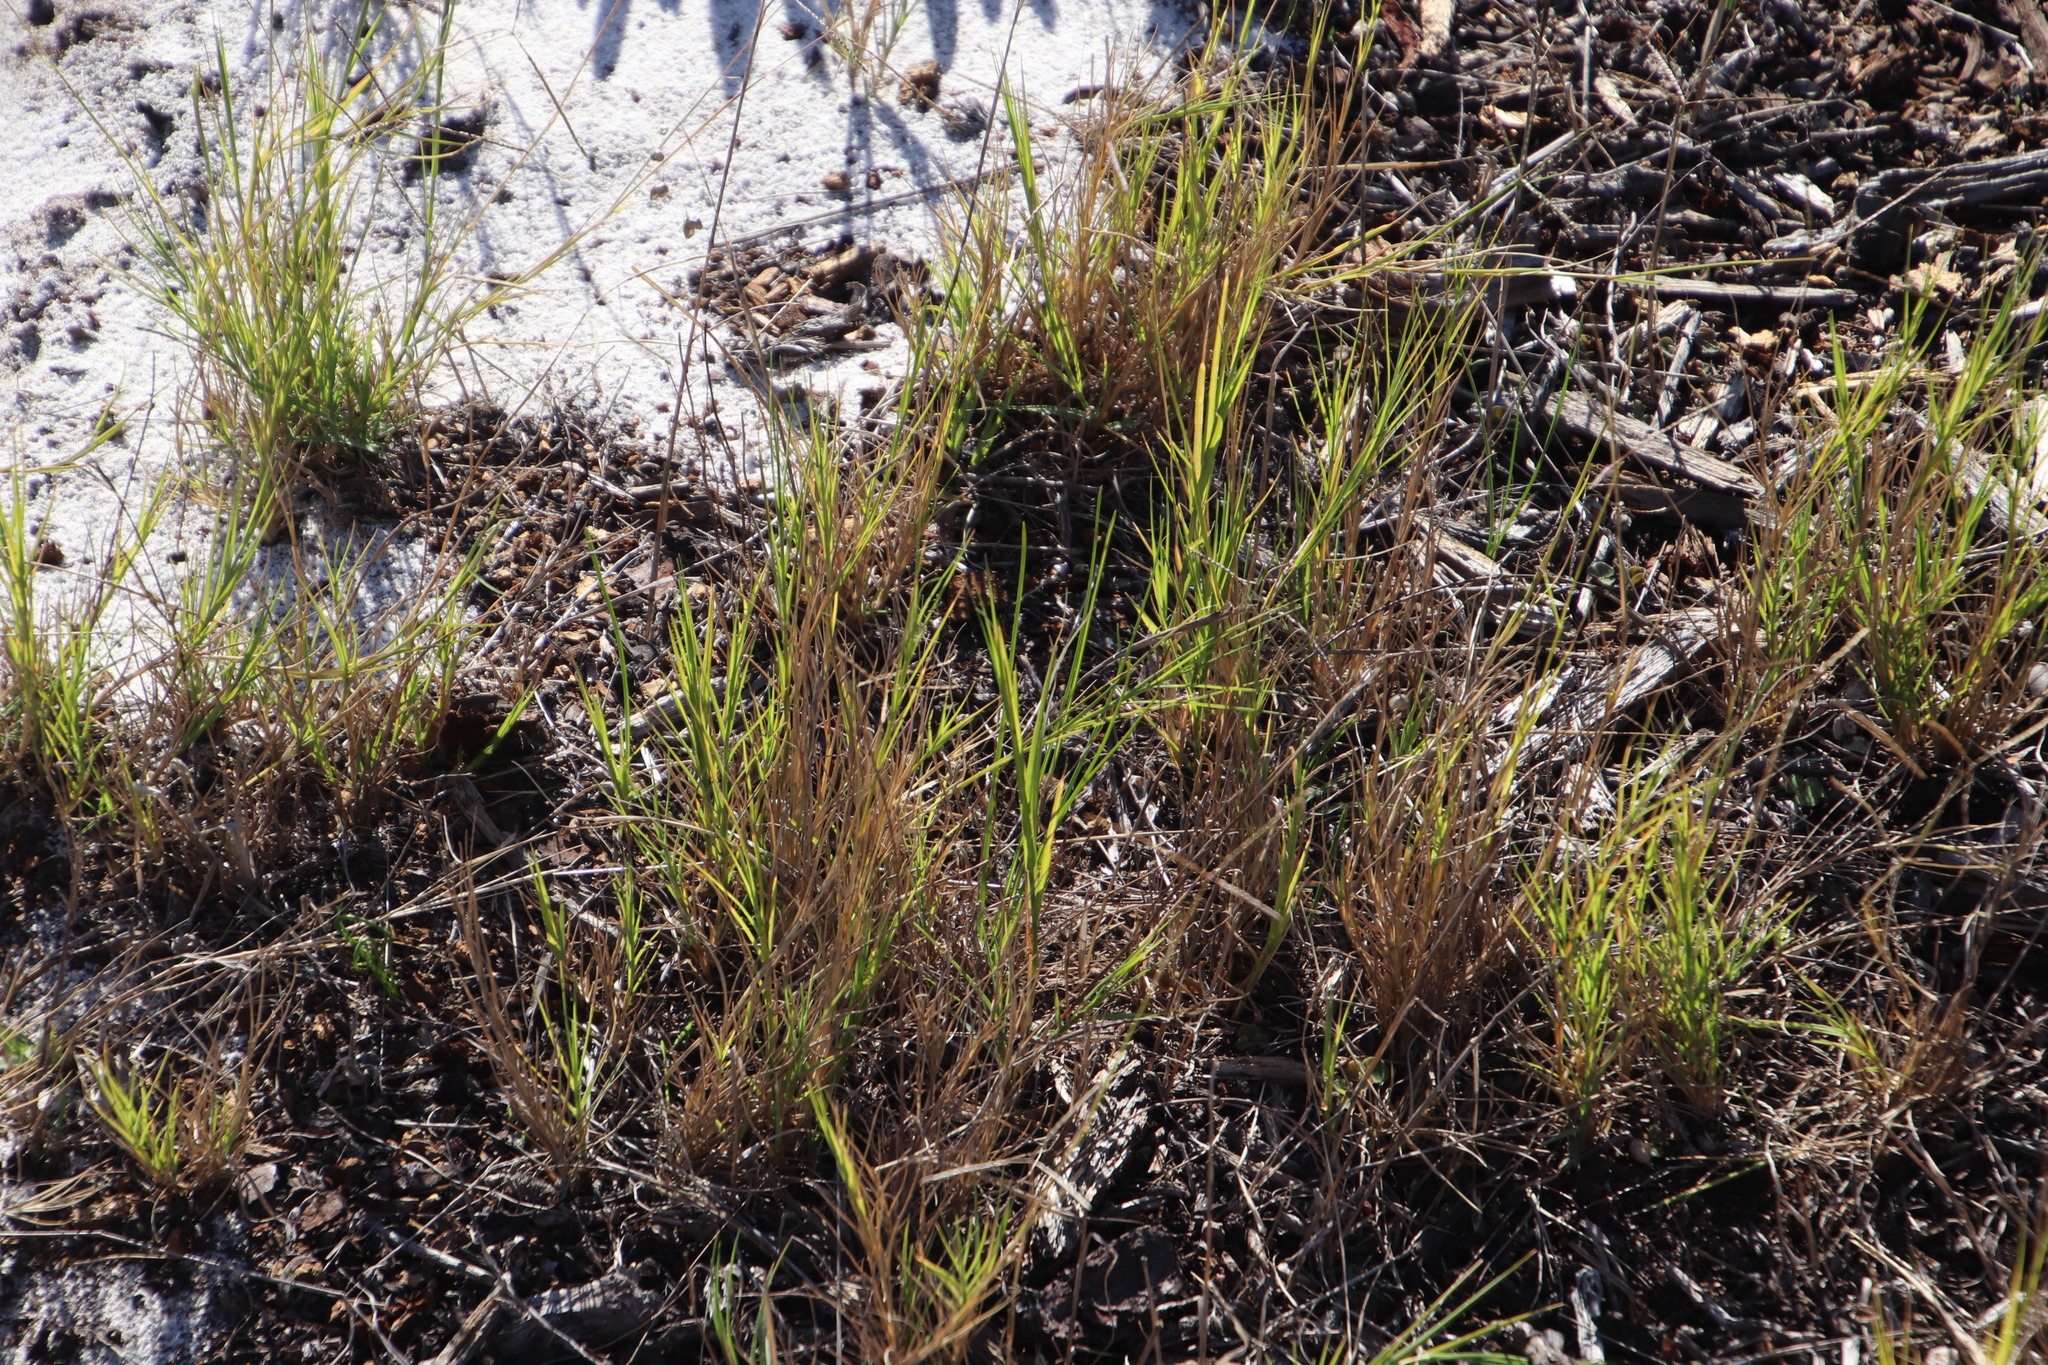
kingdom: Plantae
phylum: Tracheophyta
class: Liliopsida
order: Poales
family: Poaceae
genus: Cynodon
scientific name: Cynodon dactylon
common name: Bermuda grass
